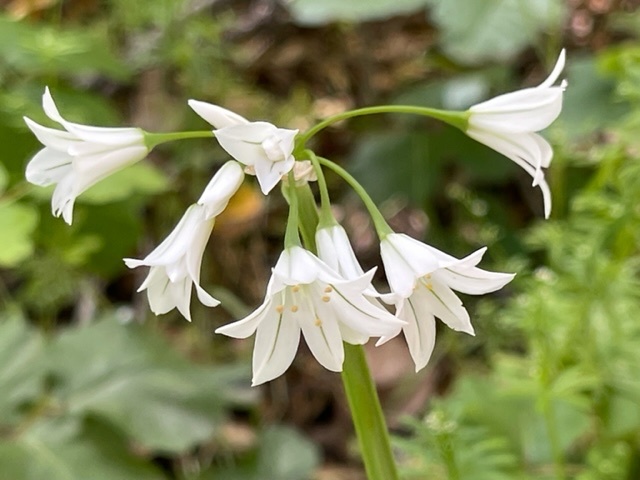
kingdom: Plantae
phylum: Tracheophyta
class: Liliopsida
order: Asparagales
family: Amaryllidaceae
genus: Allium
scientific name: Allium triquetrum
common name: Three-cornered garlic
